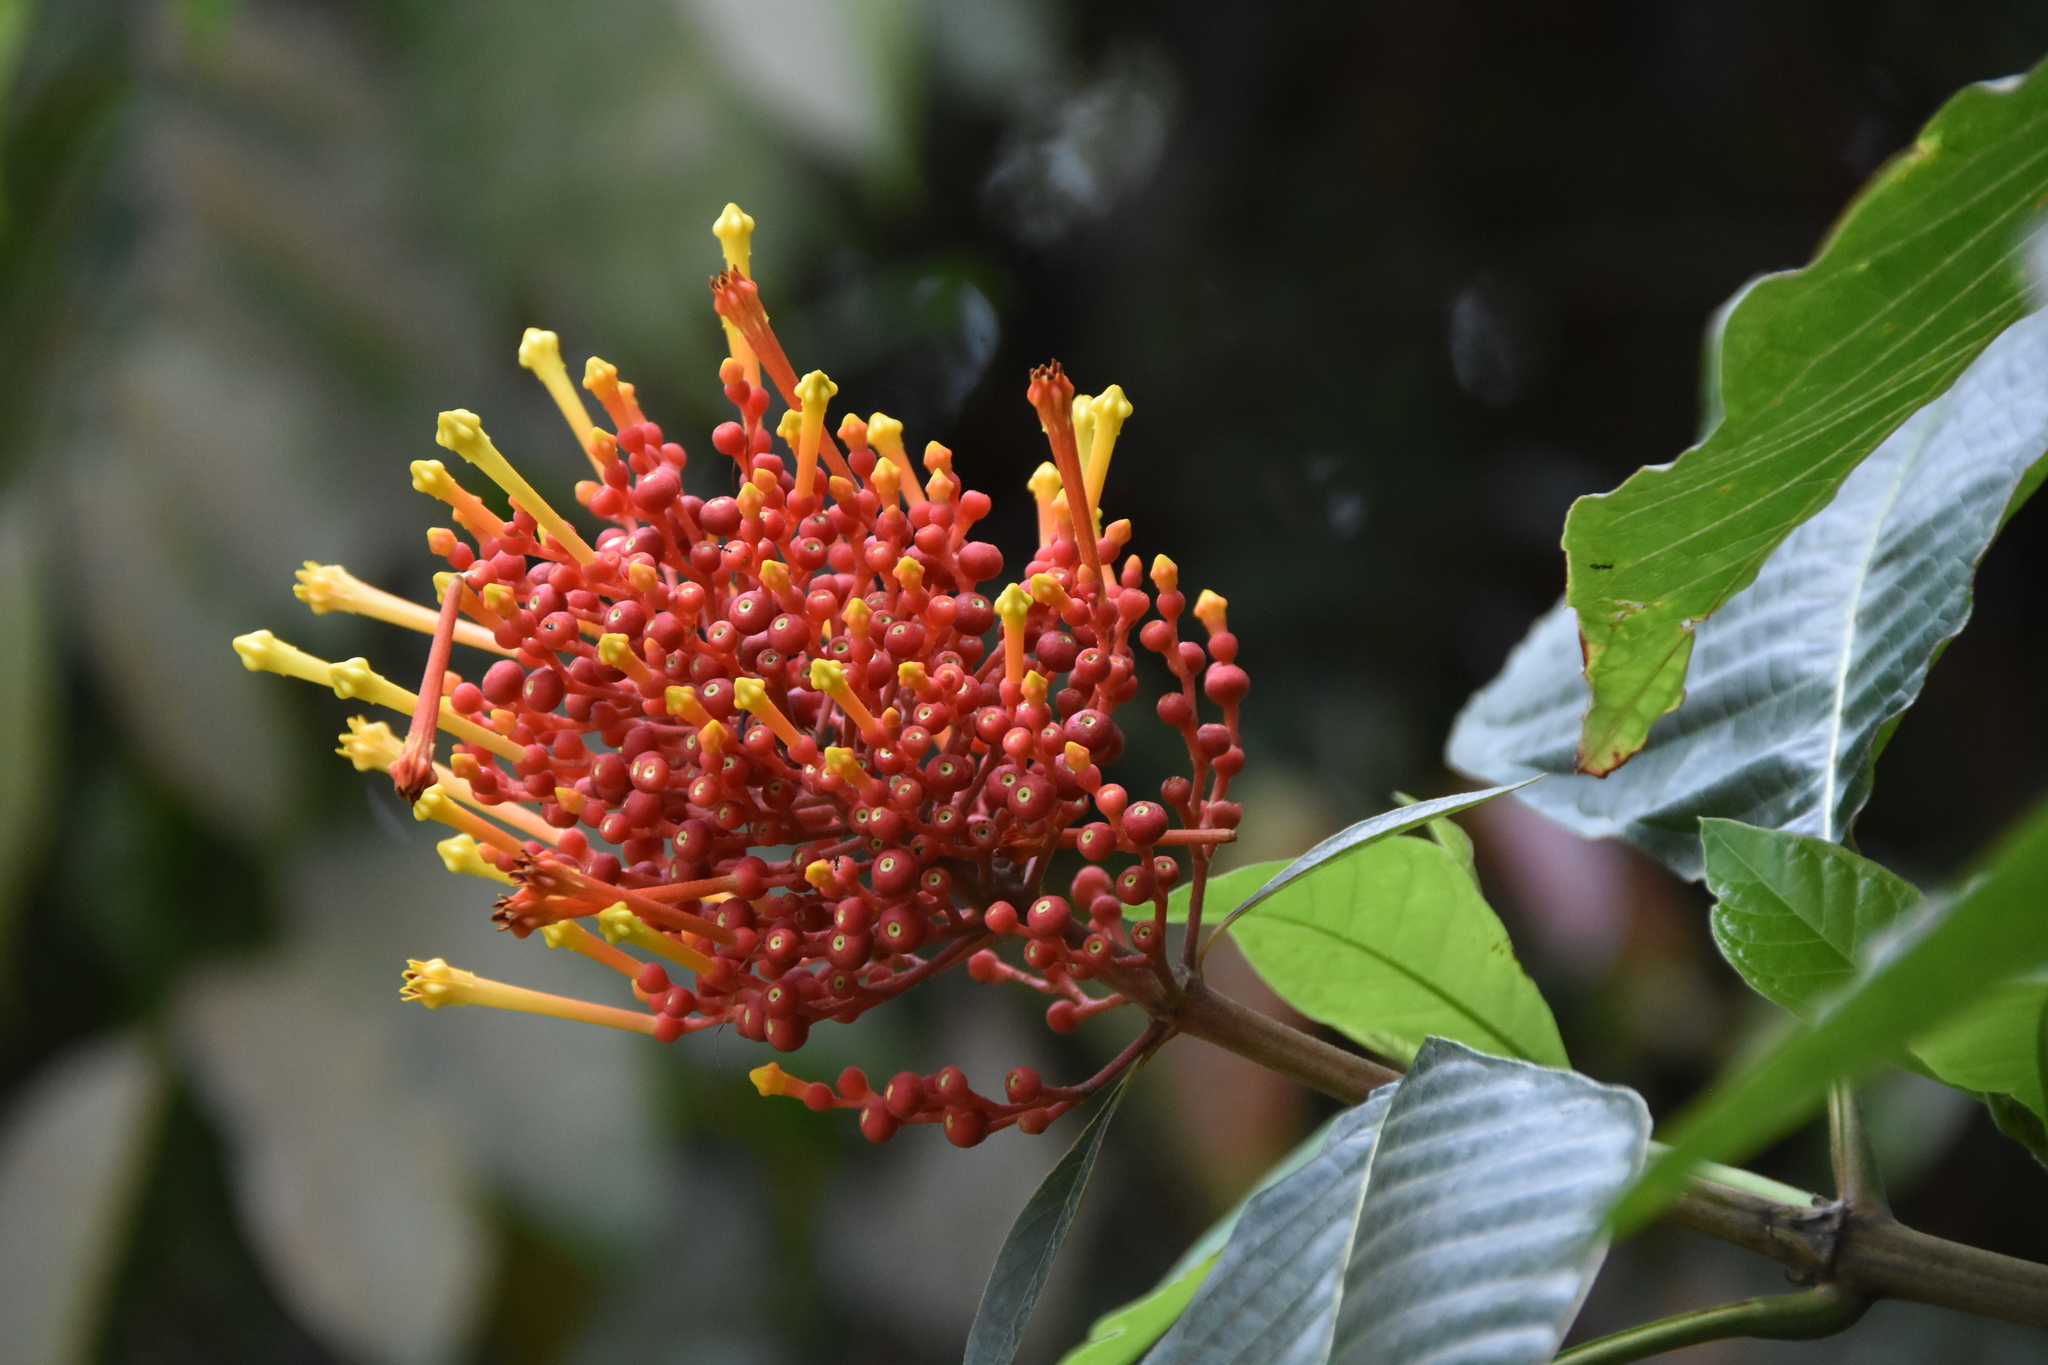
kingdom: Plantae
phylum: Tracheophyta
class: Magnoliopsida
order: Gentianales
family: Rubiaceae
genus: Isertia
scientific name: Isertia haenkeana
